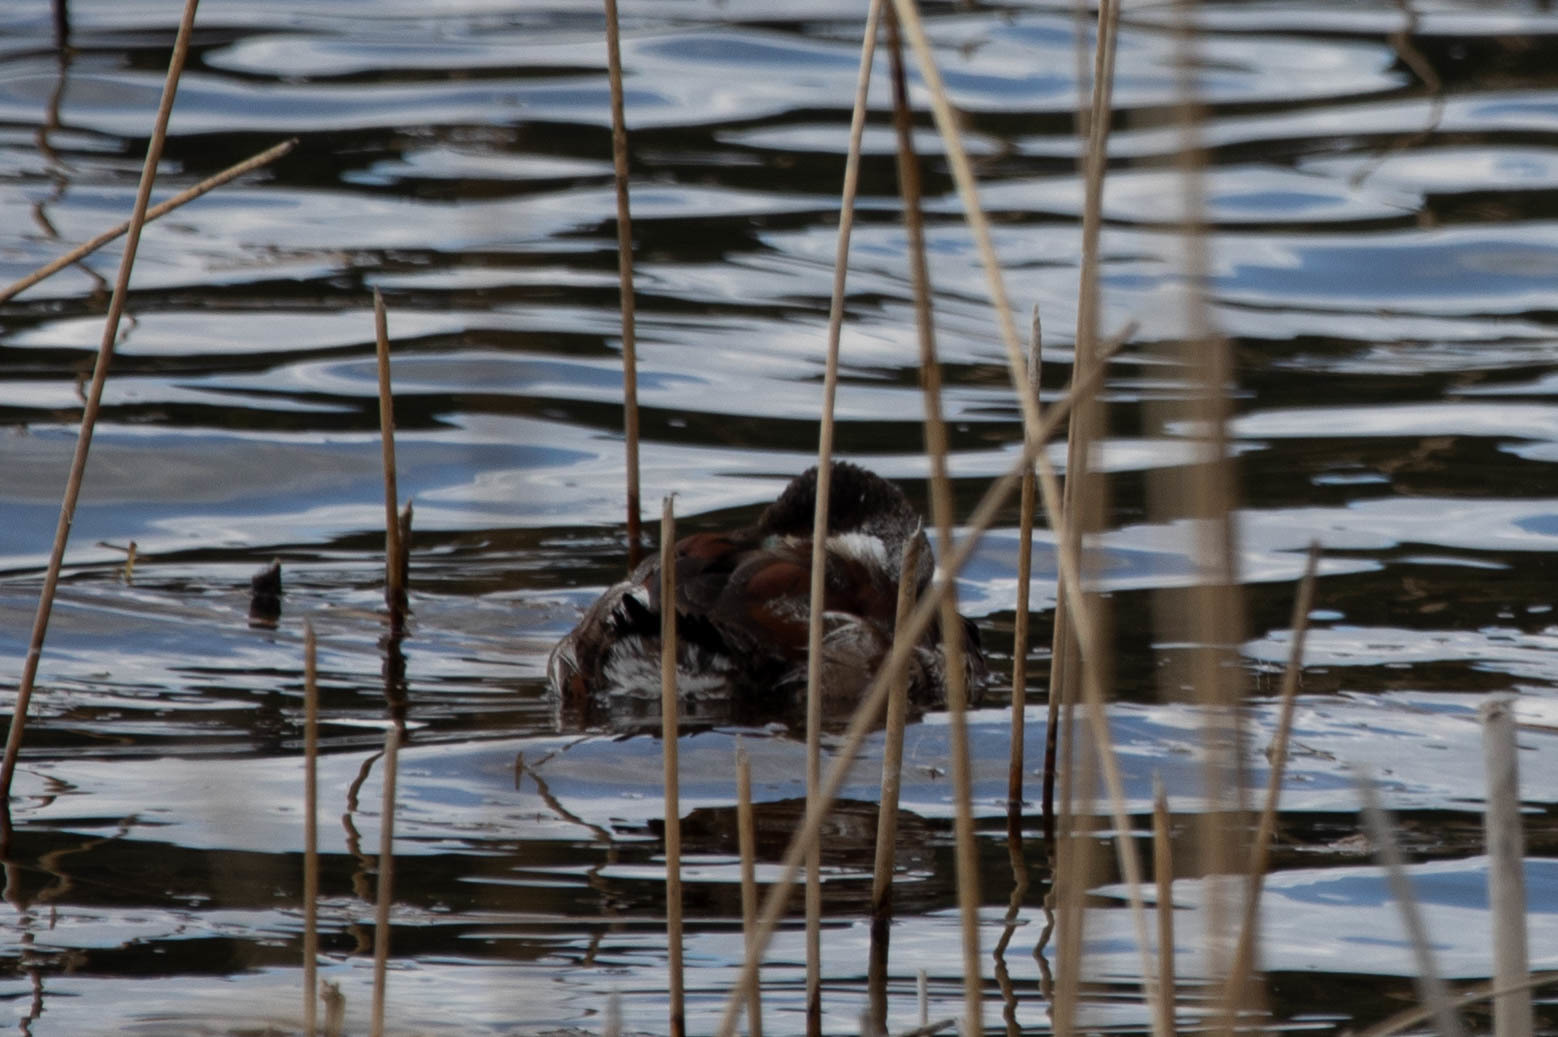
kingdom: Animalia
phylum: Chordata
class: Aves
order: Anseriformes
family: Anatidae
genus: Oxyura
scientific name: Oxyura jamaicensis
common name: Ruddy duck
